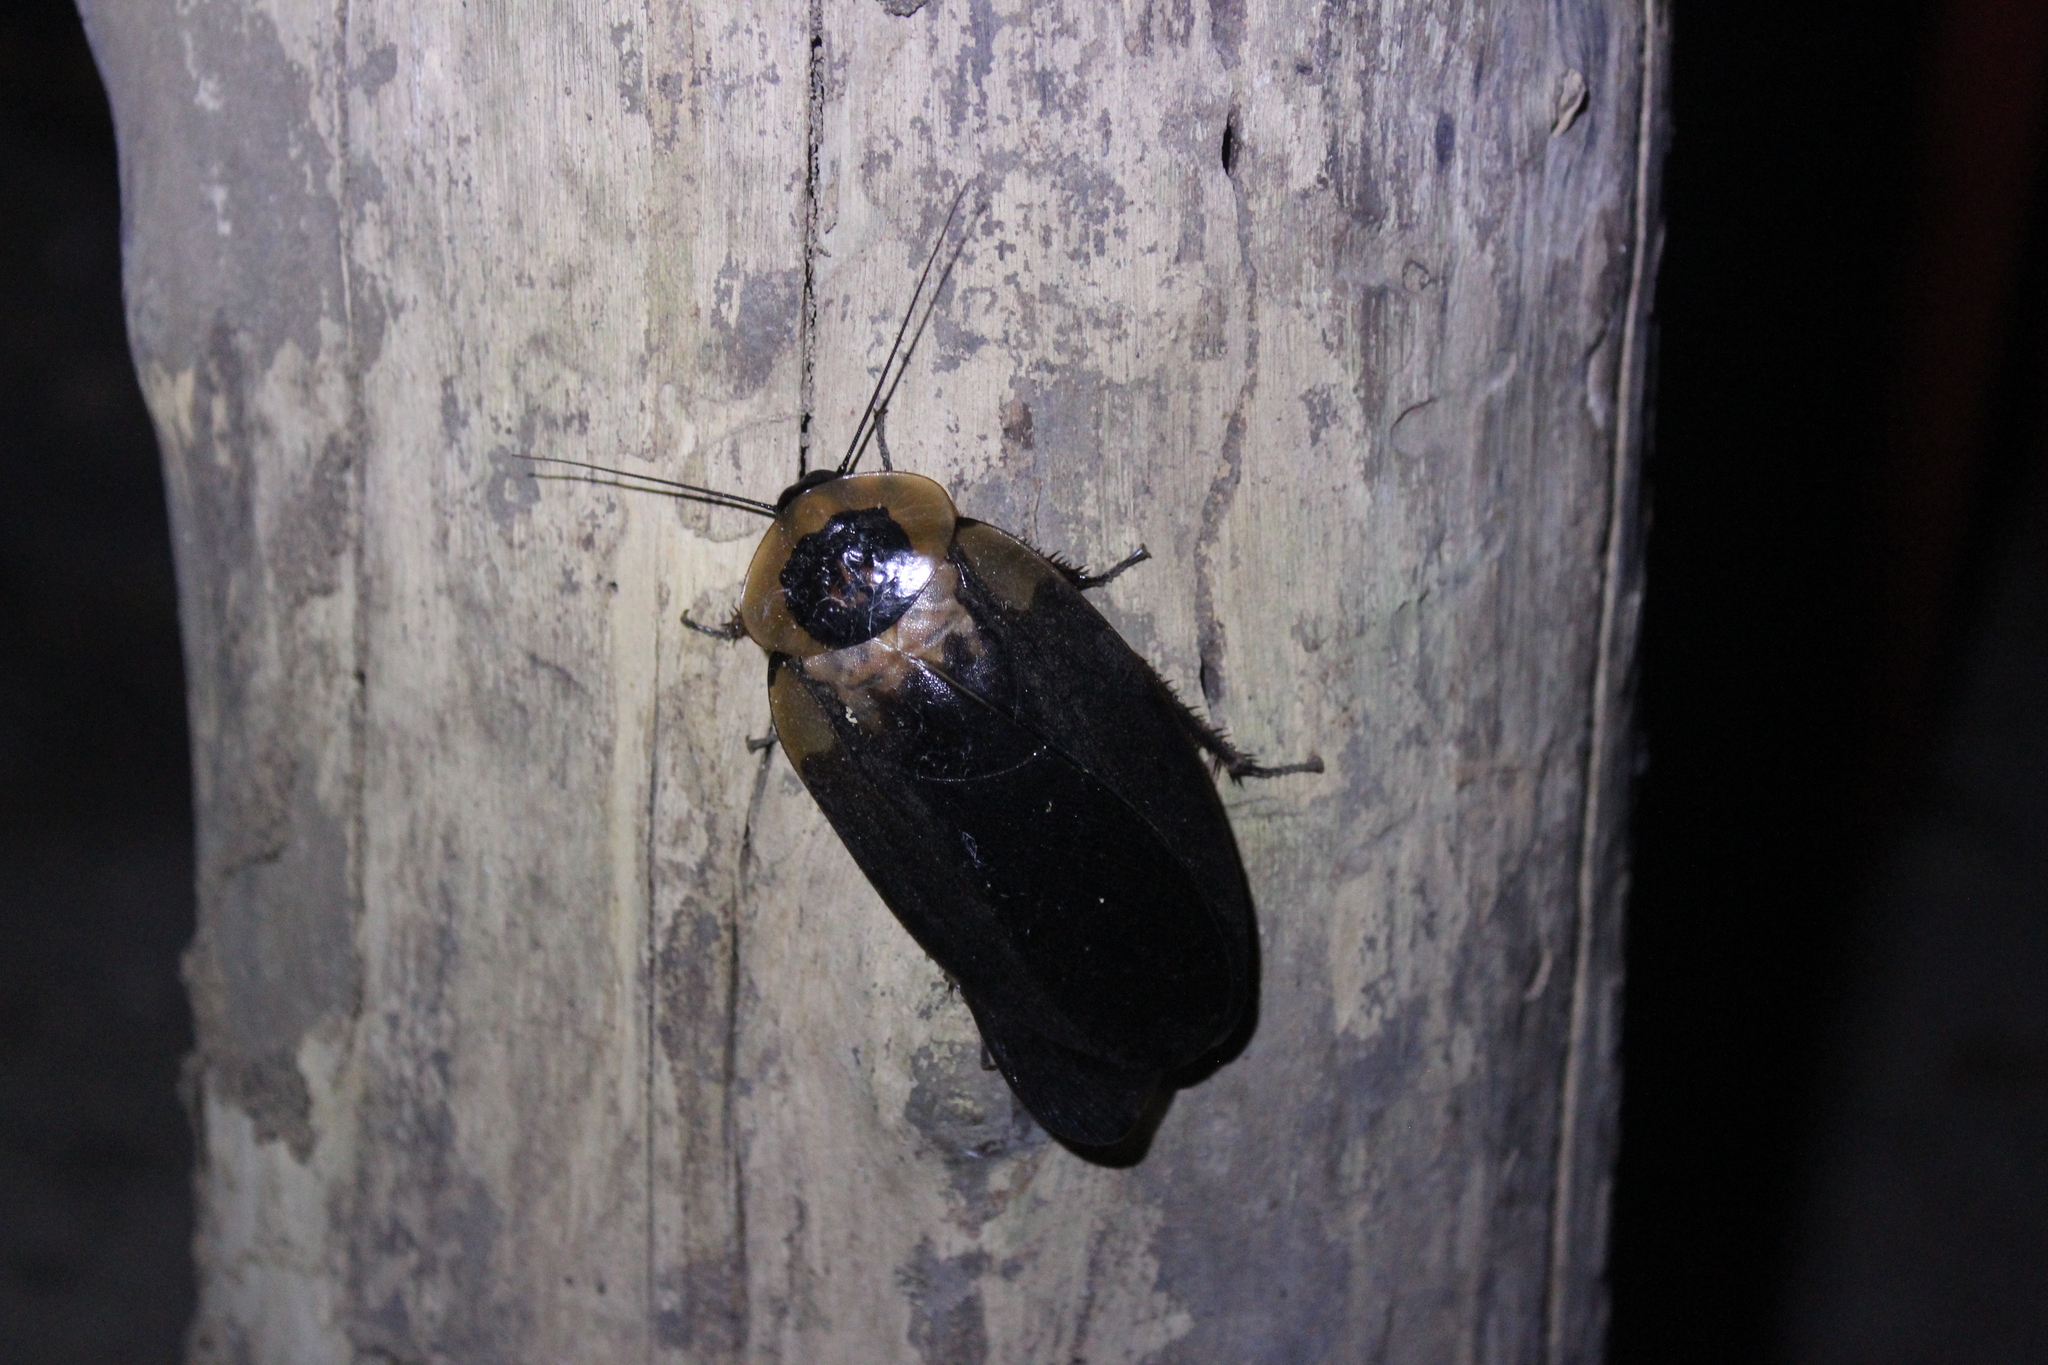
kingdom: Animalia
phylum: Arthropoda
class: Insecta
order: Blattodea
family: Blaberidae
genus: Blaberus
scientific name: Blaberus craniifer
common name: Death's head cockroach
